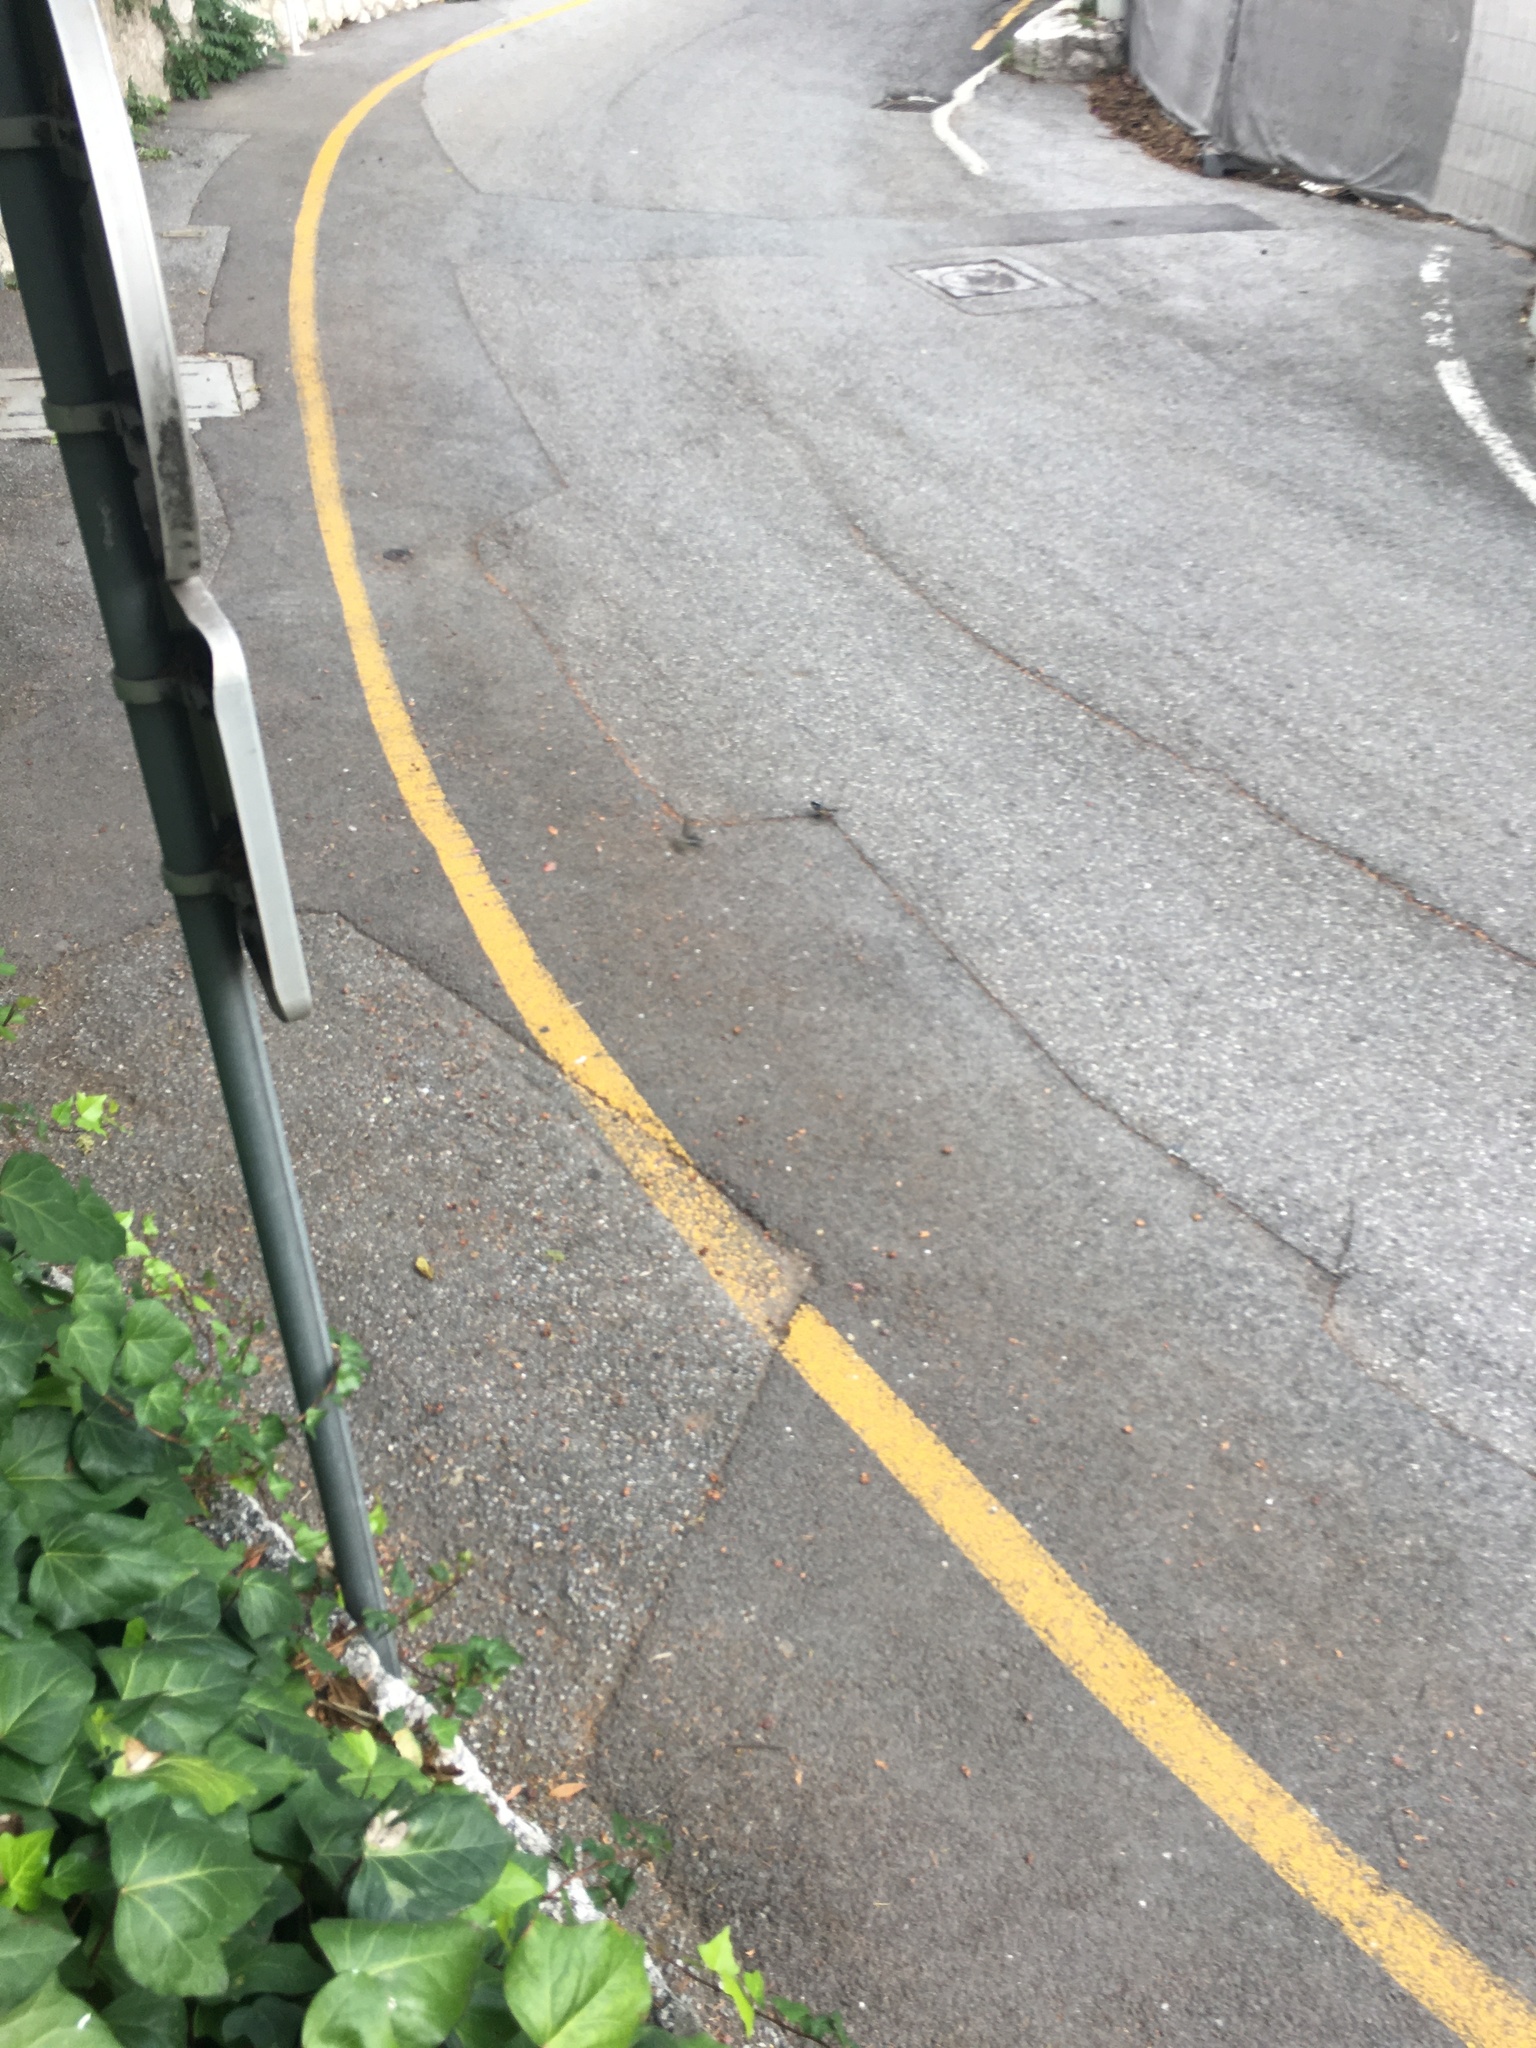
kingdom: Animalia
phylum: Chordata
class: Aves
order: Passeriformes
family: Paridae
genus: Periparus
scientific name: Periparus ater
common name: Coal tit
